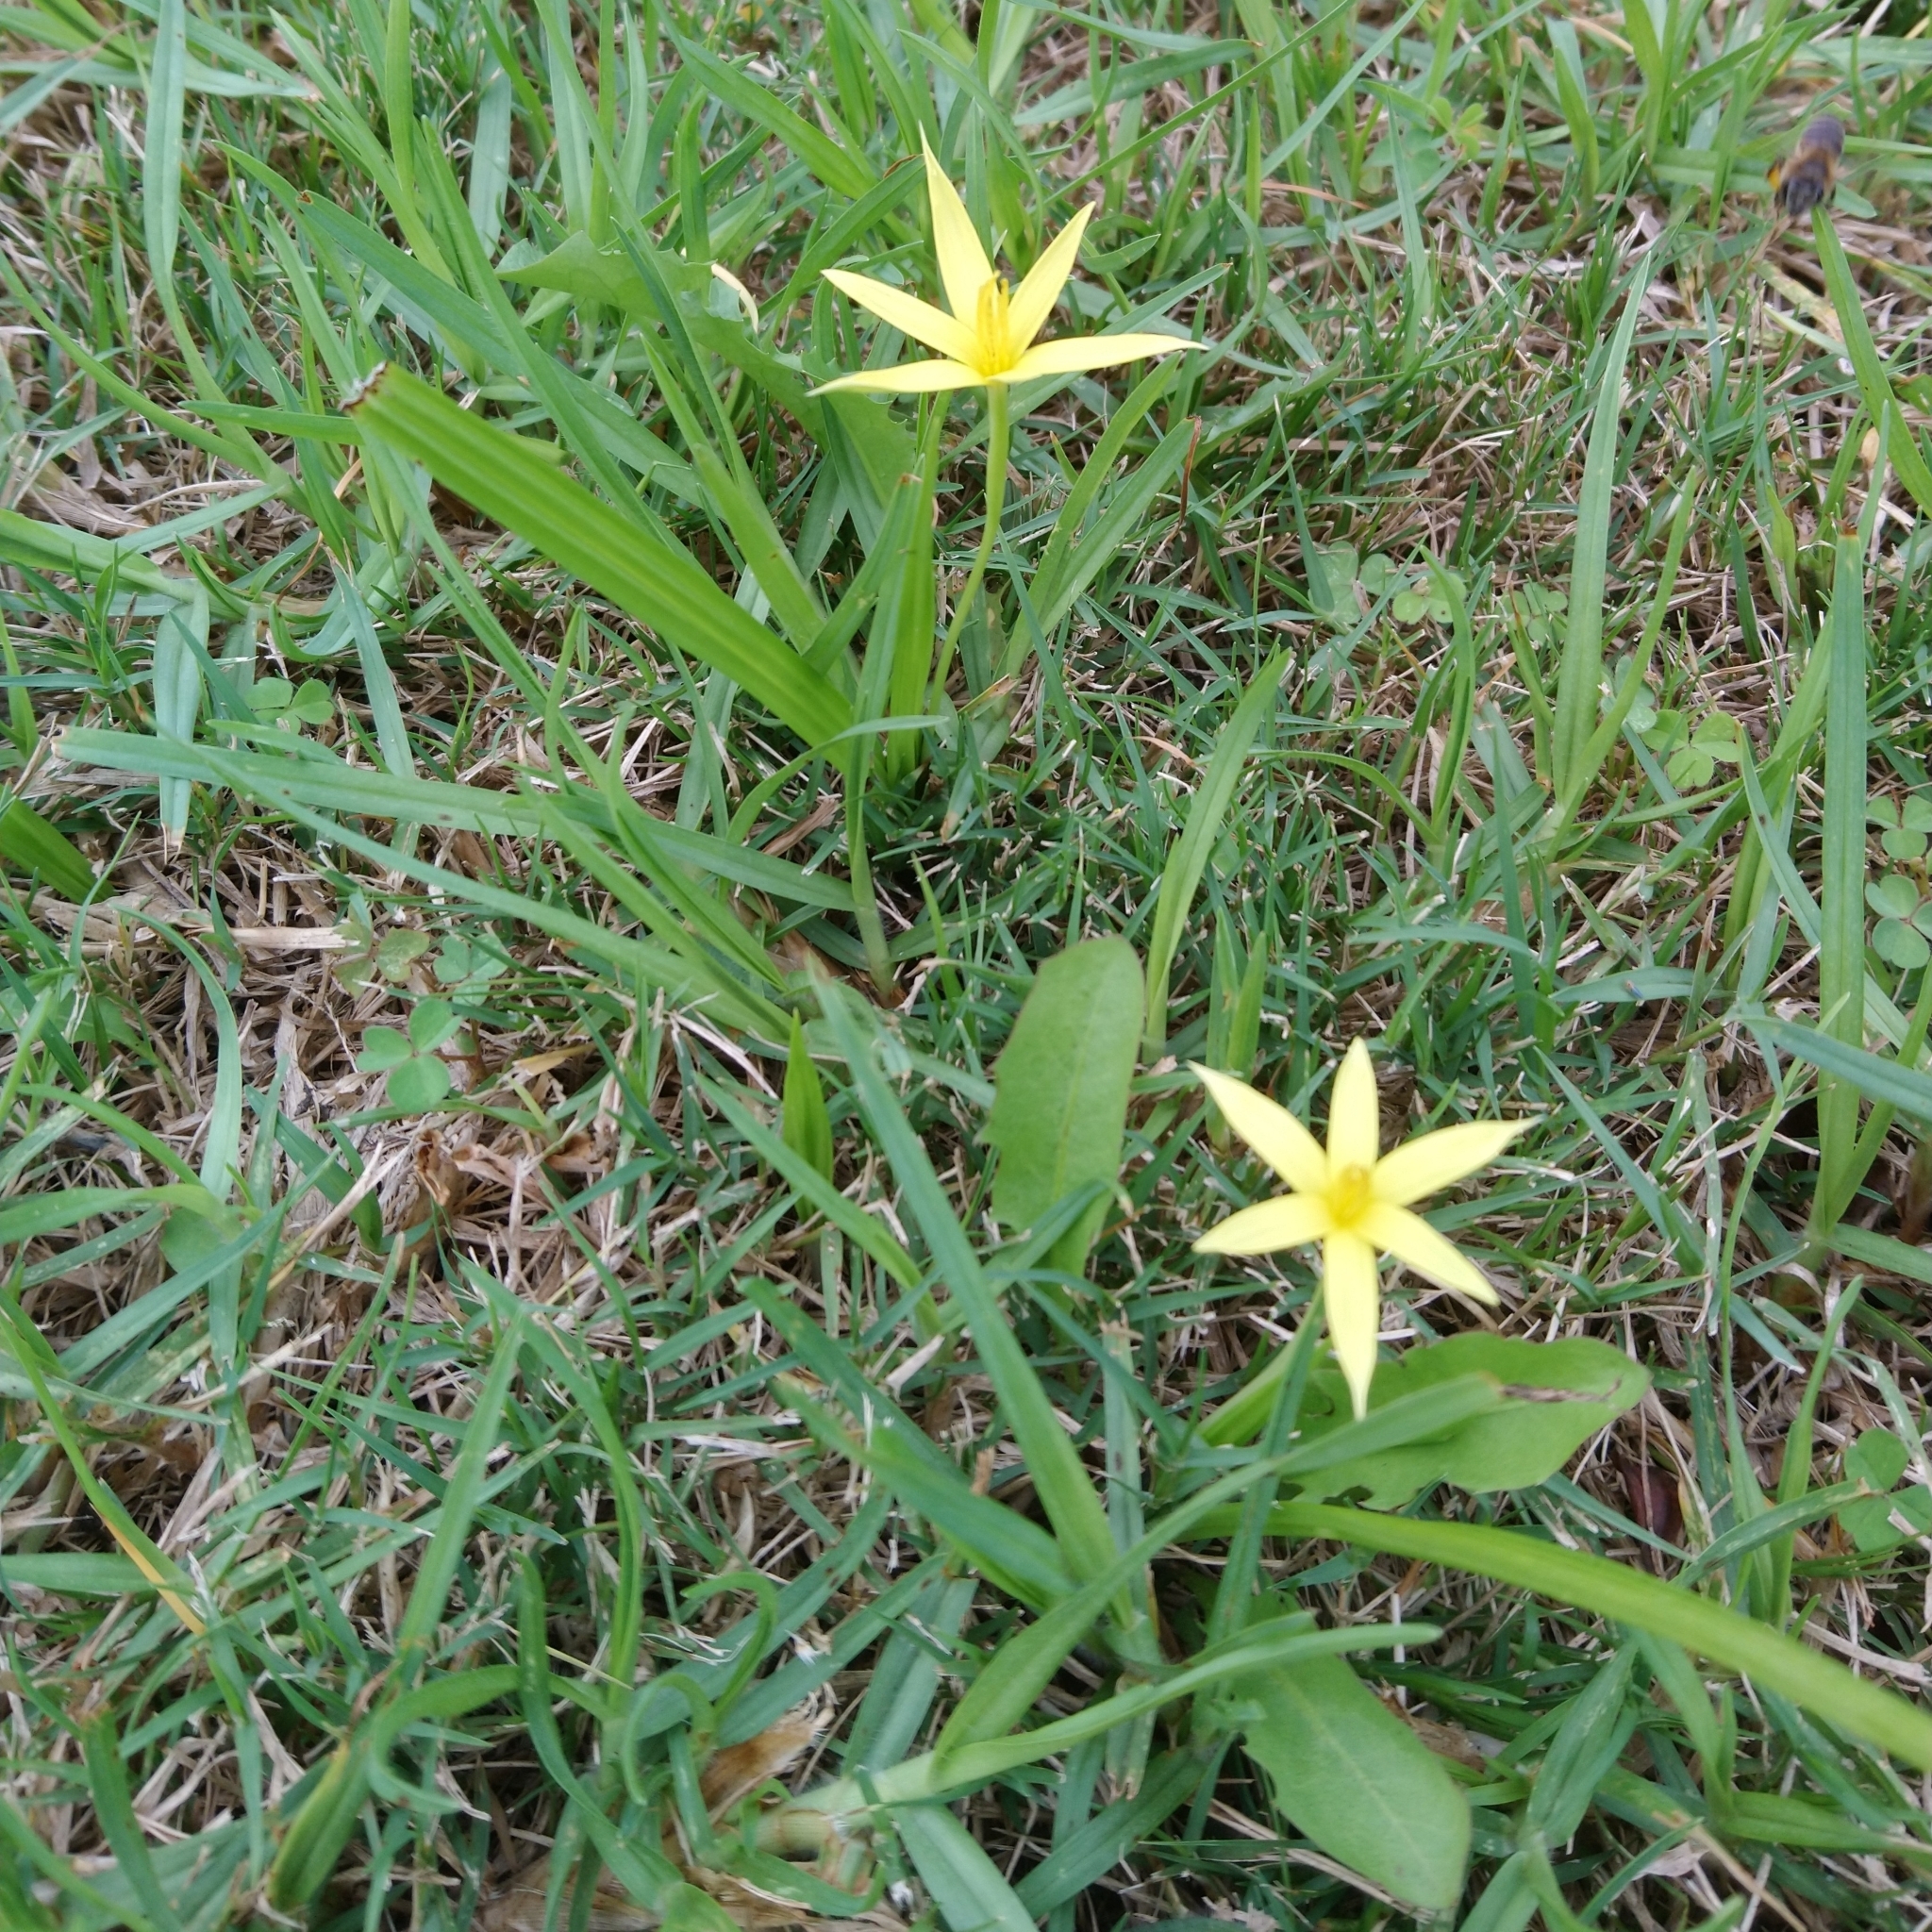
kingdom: Plantae
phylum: Tracheophyta
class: Liliopsida
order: Asparagales
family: Hypoxidaceae
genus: Empodium
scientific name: Empodium gloriosum
